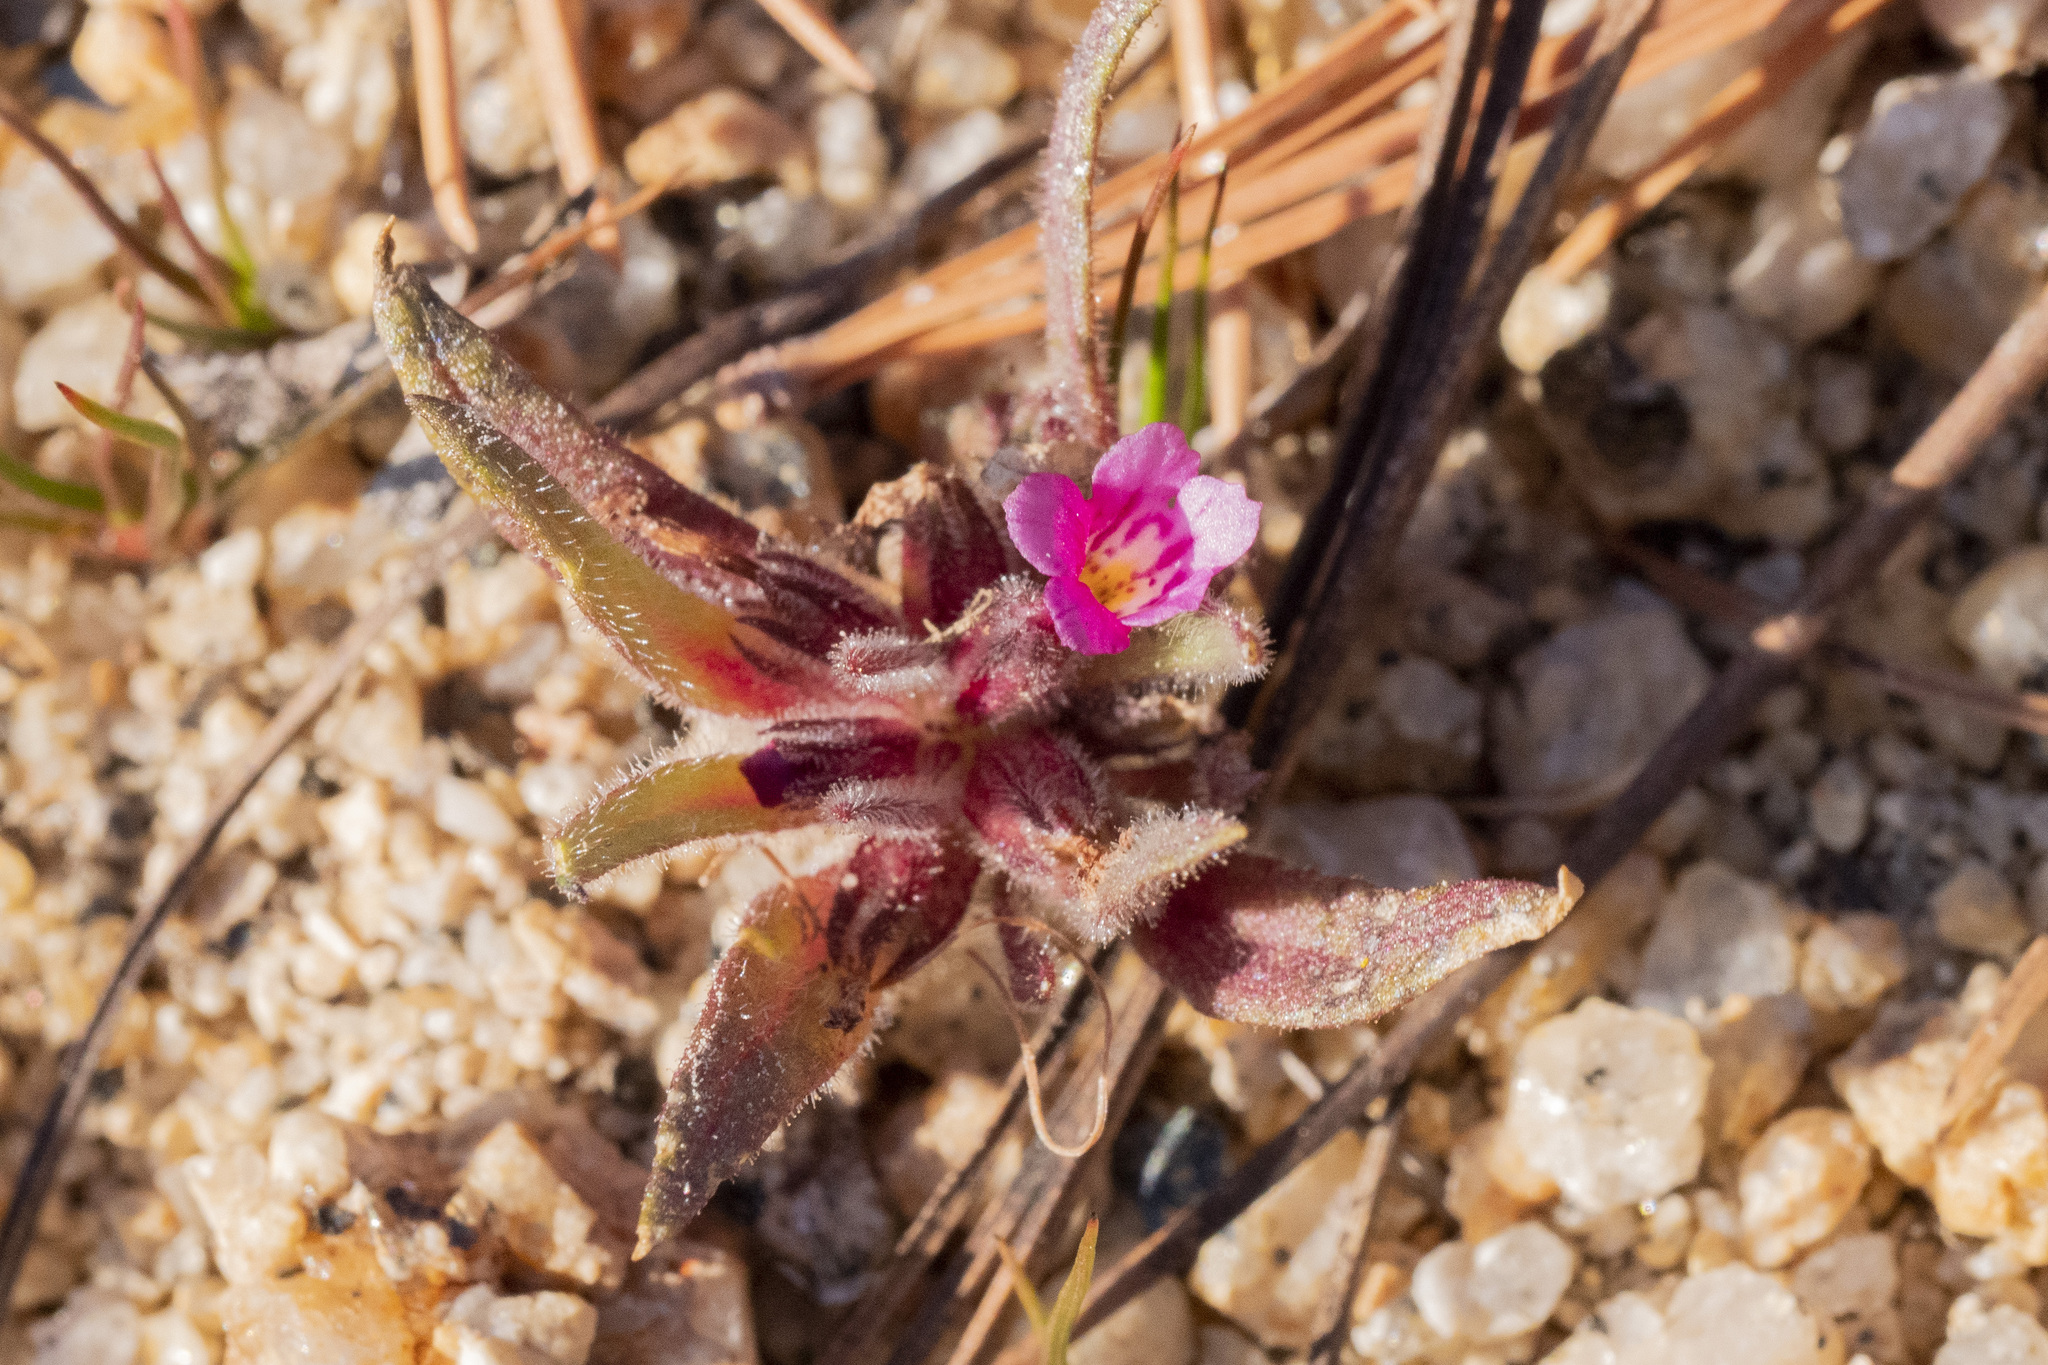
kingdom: Plantae
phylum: Tracheophyta
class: Magnoliopsida
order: Lamiales
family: Phrymaceae
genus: Diplacus
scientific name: Diplacus leptaleus
